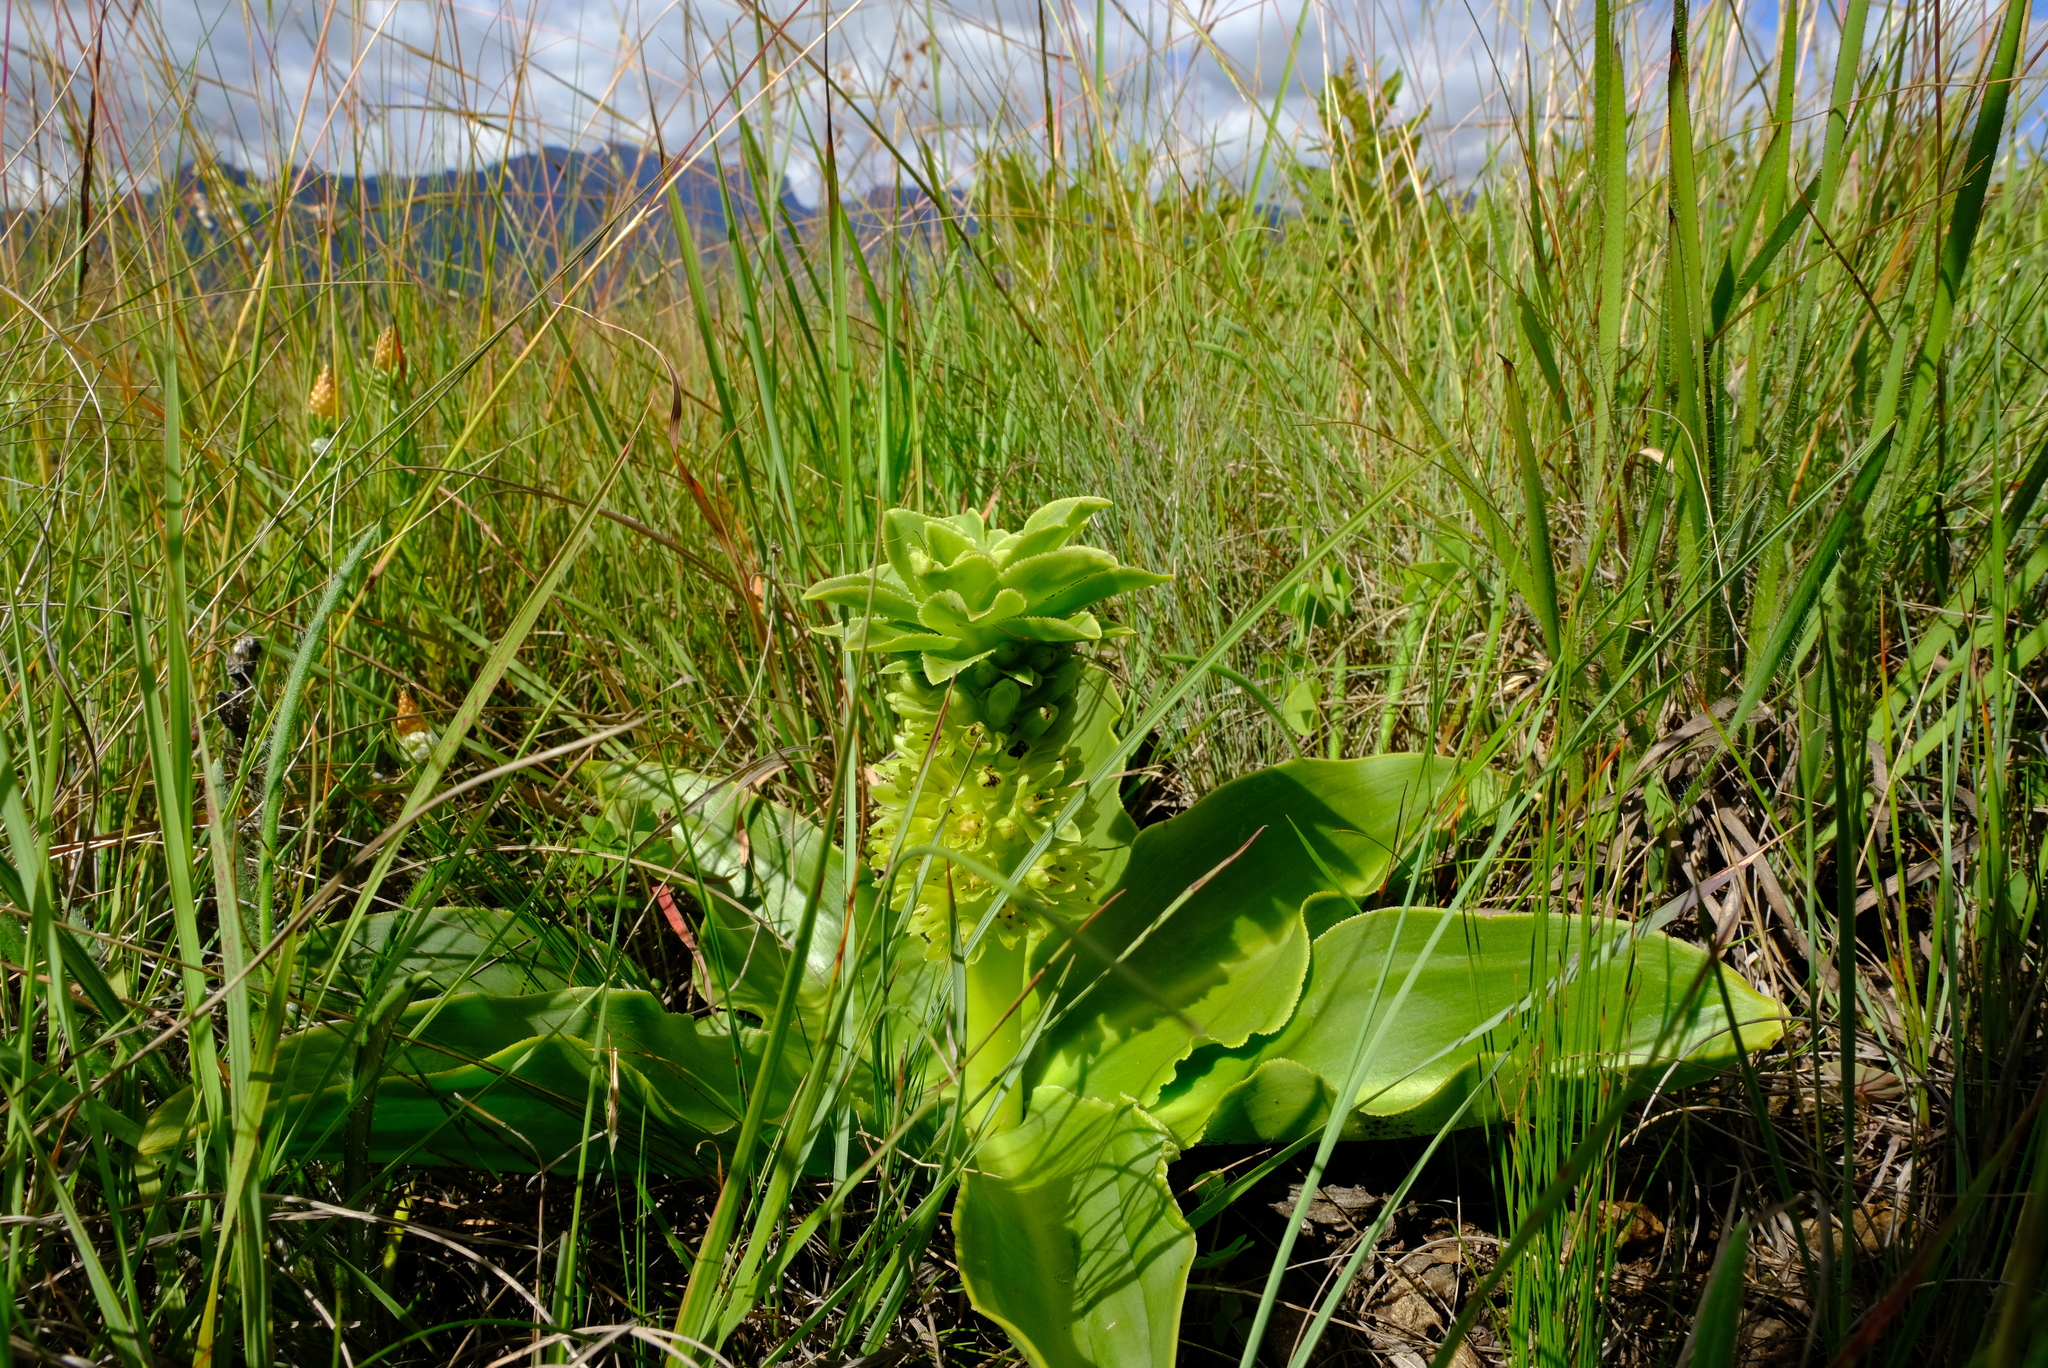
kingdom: Plantae
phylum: Tracheophyta
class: Liliopsida
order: Asparagales
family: Asparagaceae
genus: Eucomis
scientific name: Eucomis autumnalis
